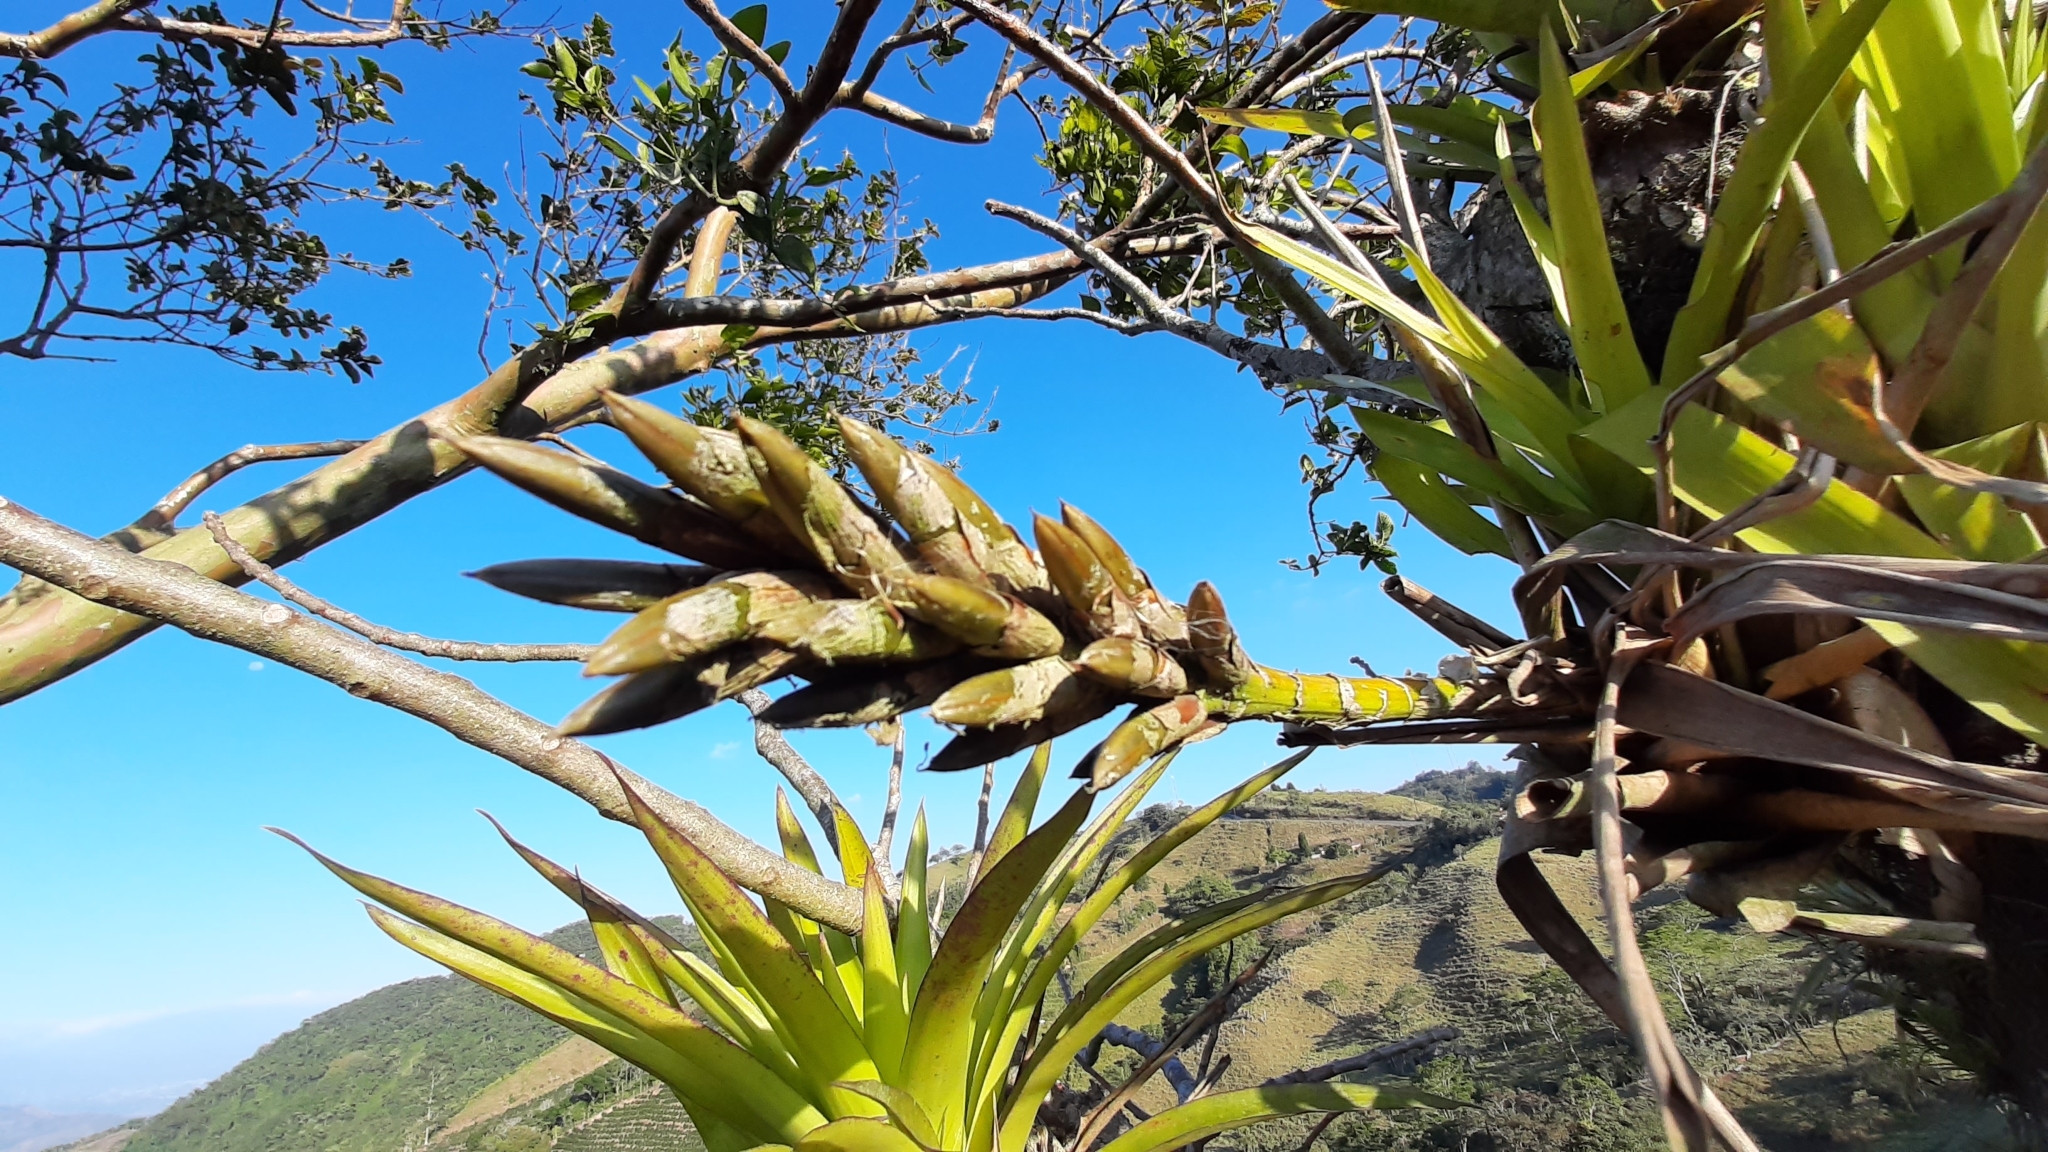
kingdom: Plantae
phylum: Tracheophyta
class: Liliopsida
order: Poales
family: Bromeliaceae
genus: Guzmania
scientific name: Guzmania monostachia
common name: West indian tufted airplant
